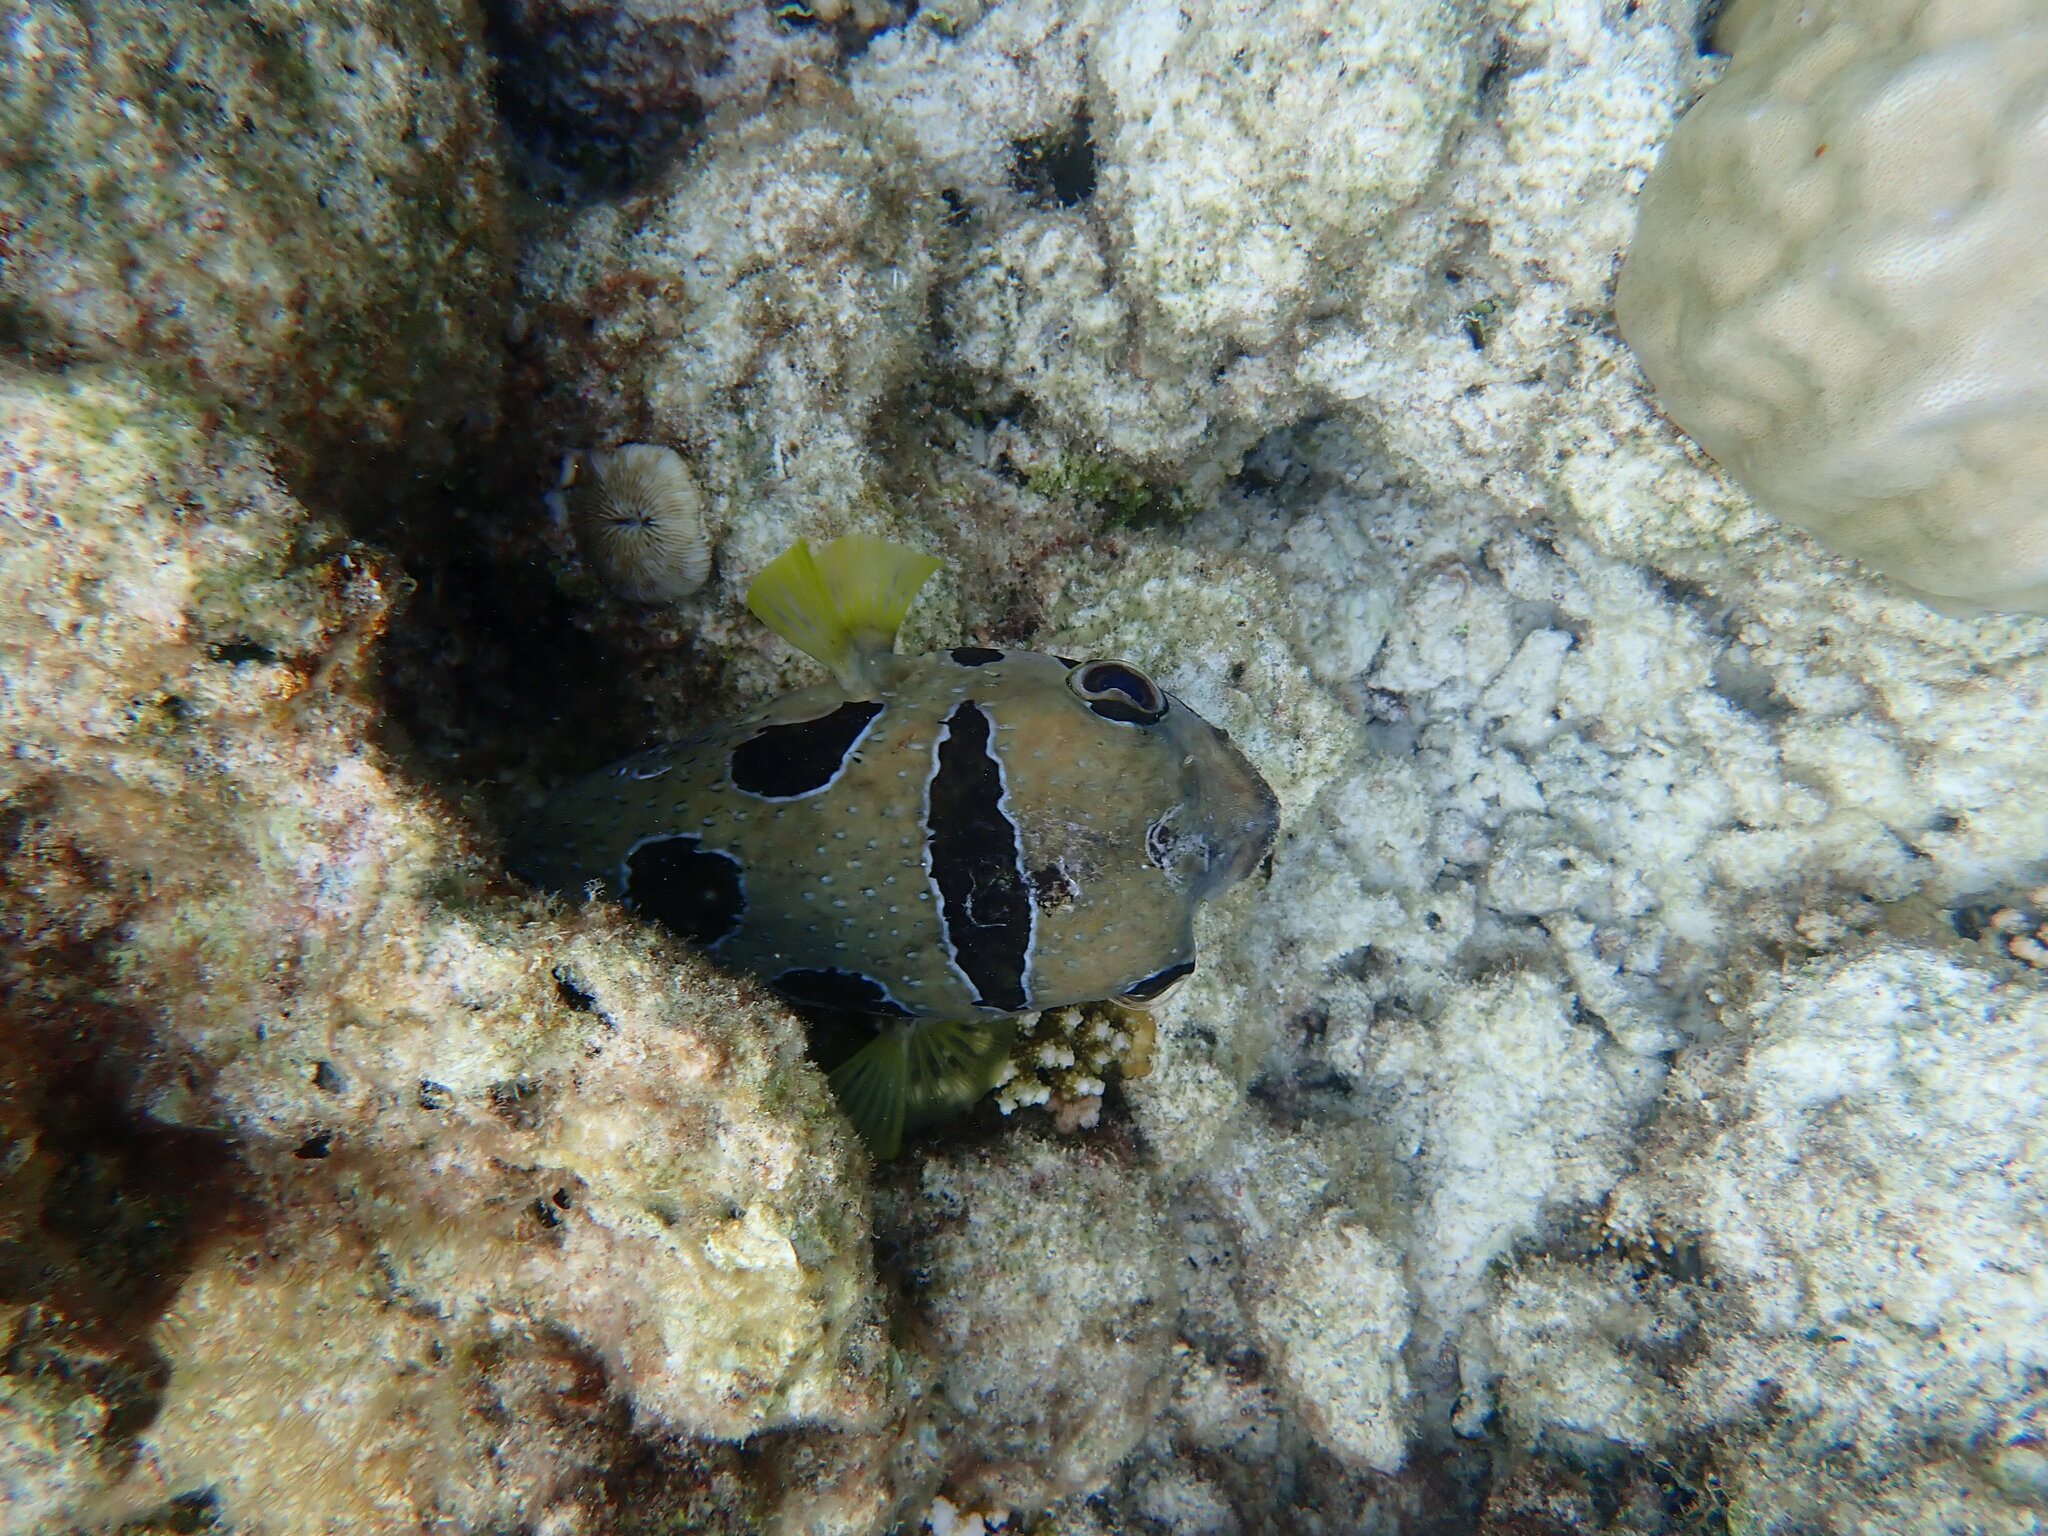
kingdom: Animalia
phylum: Chordata
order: Tetraodontiformes
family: Diodontidae
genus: Diodon
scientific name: Diodon liturosus
